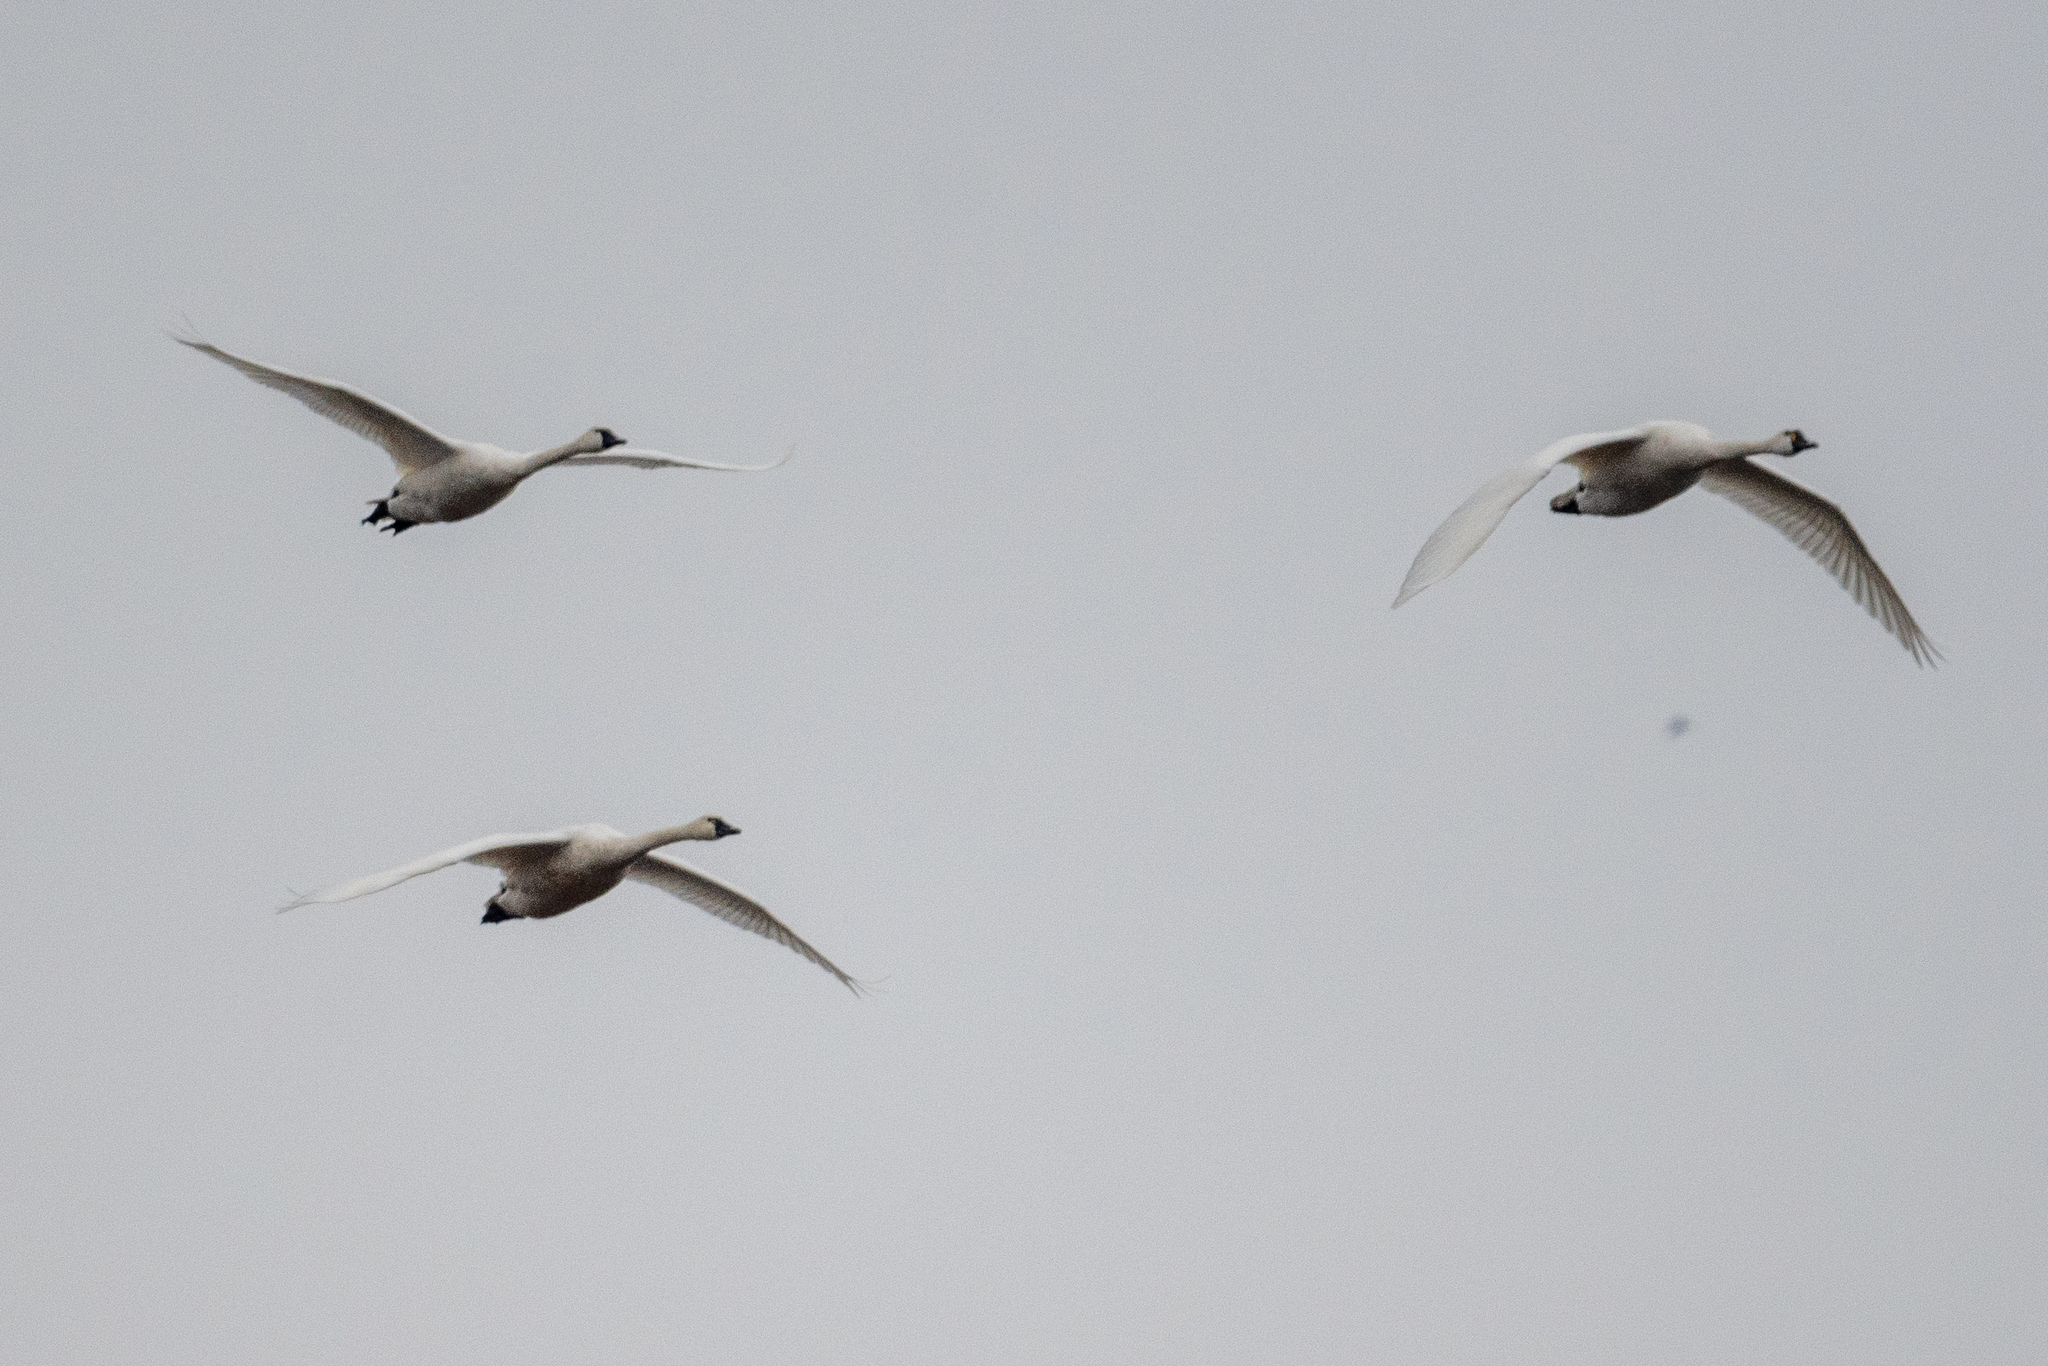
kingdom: Animalia
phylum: Chordata
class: Aves
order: Anseriformes
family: Anatidae
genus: Cygnus
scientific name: Cygnus columbianus
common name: Tundra swan
